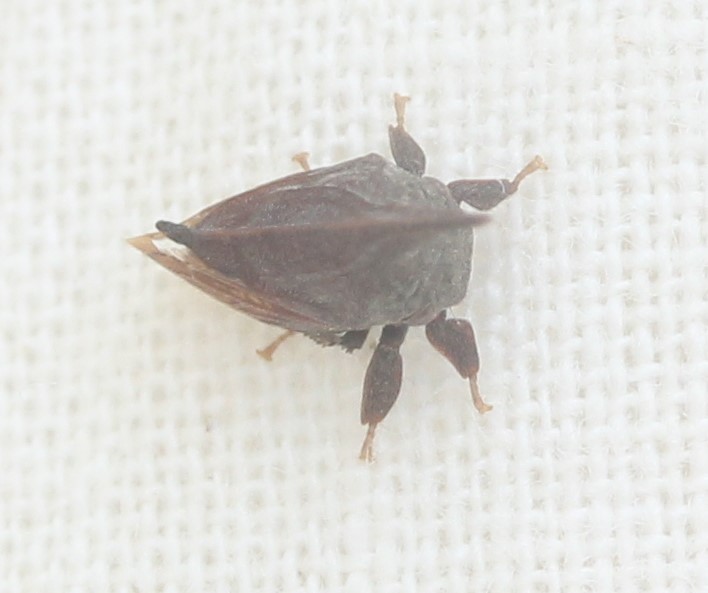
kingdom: Animalia
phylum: Arthropoda
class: Insecta
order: Hemiptera
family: Membracidae
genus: Enchenopa
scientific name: Enchenopa latipes
